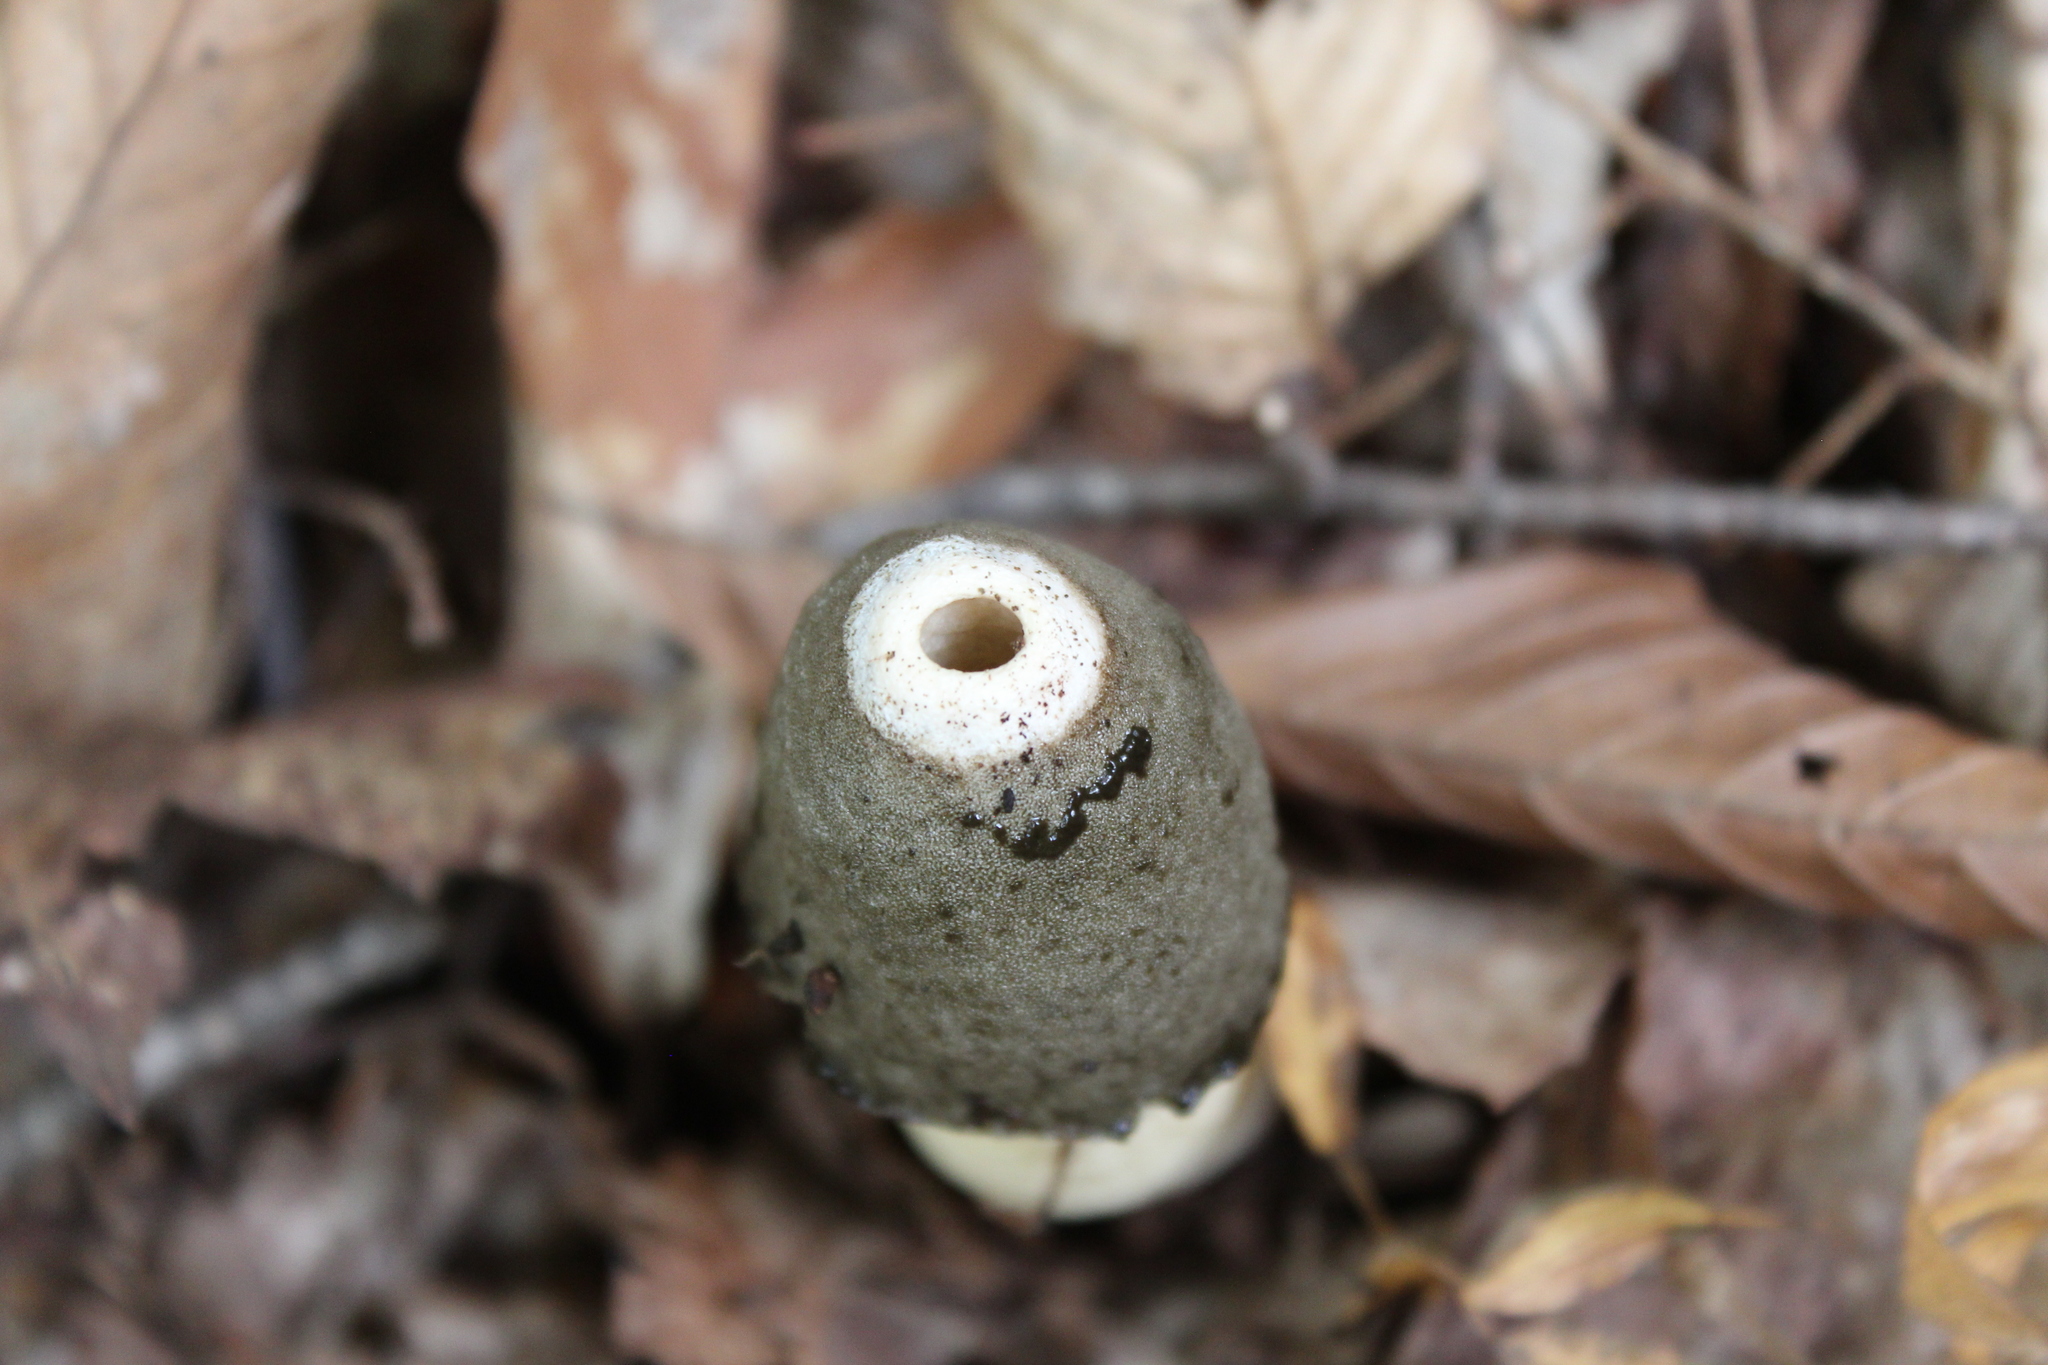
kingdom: Fungi
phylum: Basidiomycota
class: Agaricomycetes
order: Phallales
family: Phallaceae
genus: Phallus
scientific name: Phallus ravenelii
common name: Ravenel's stinkhorn
